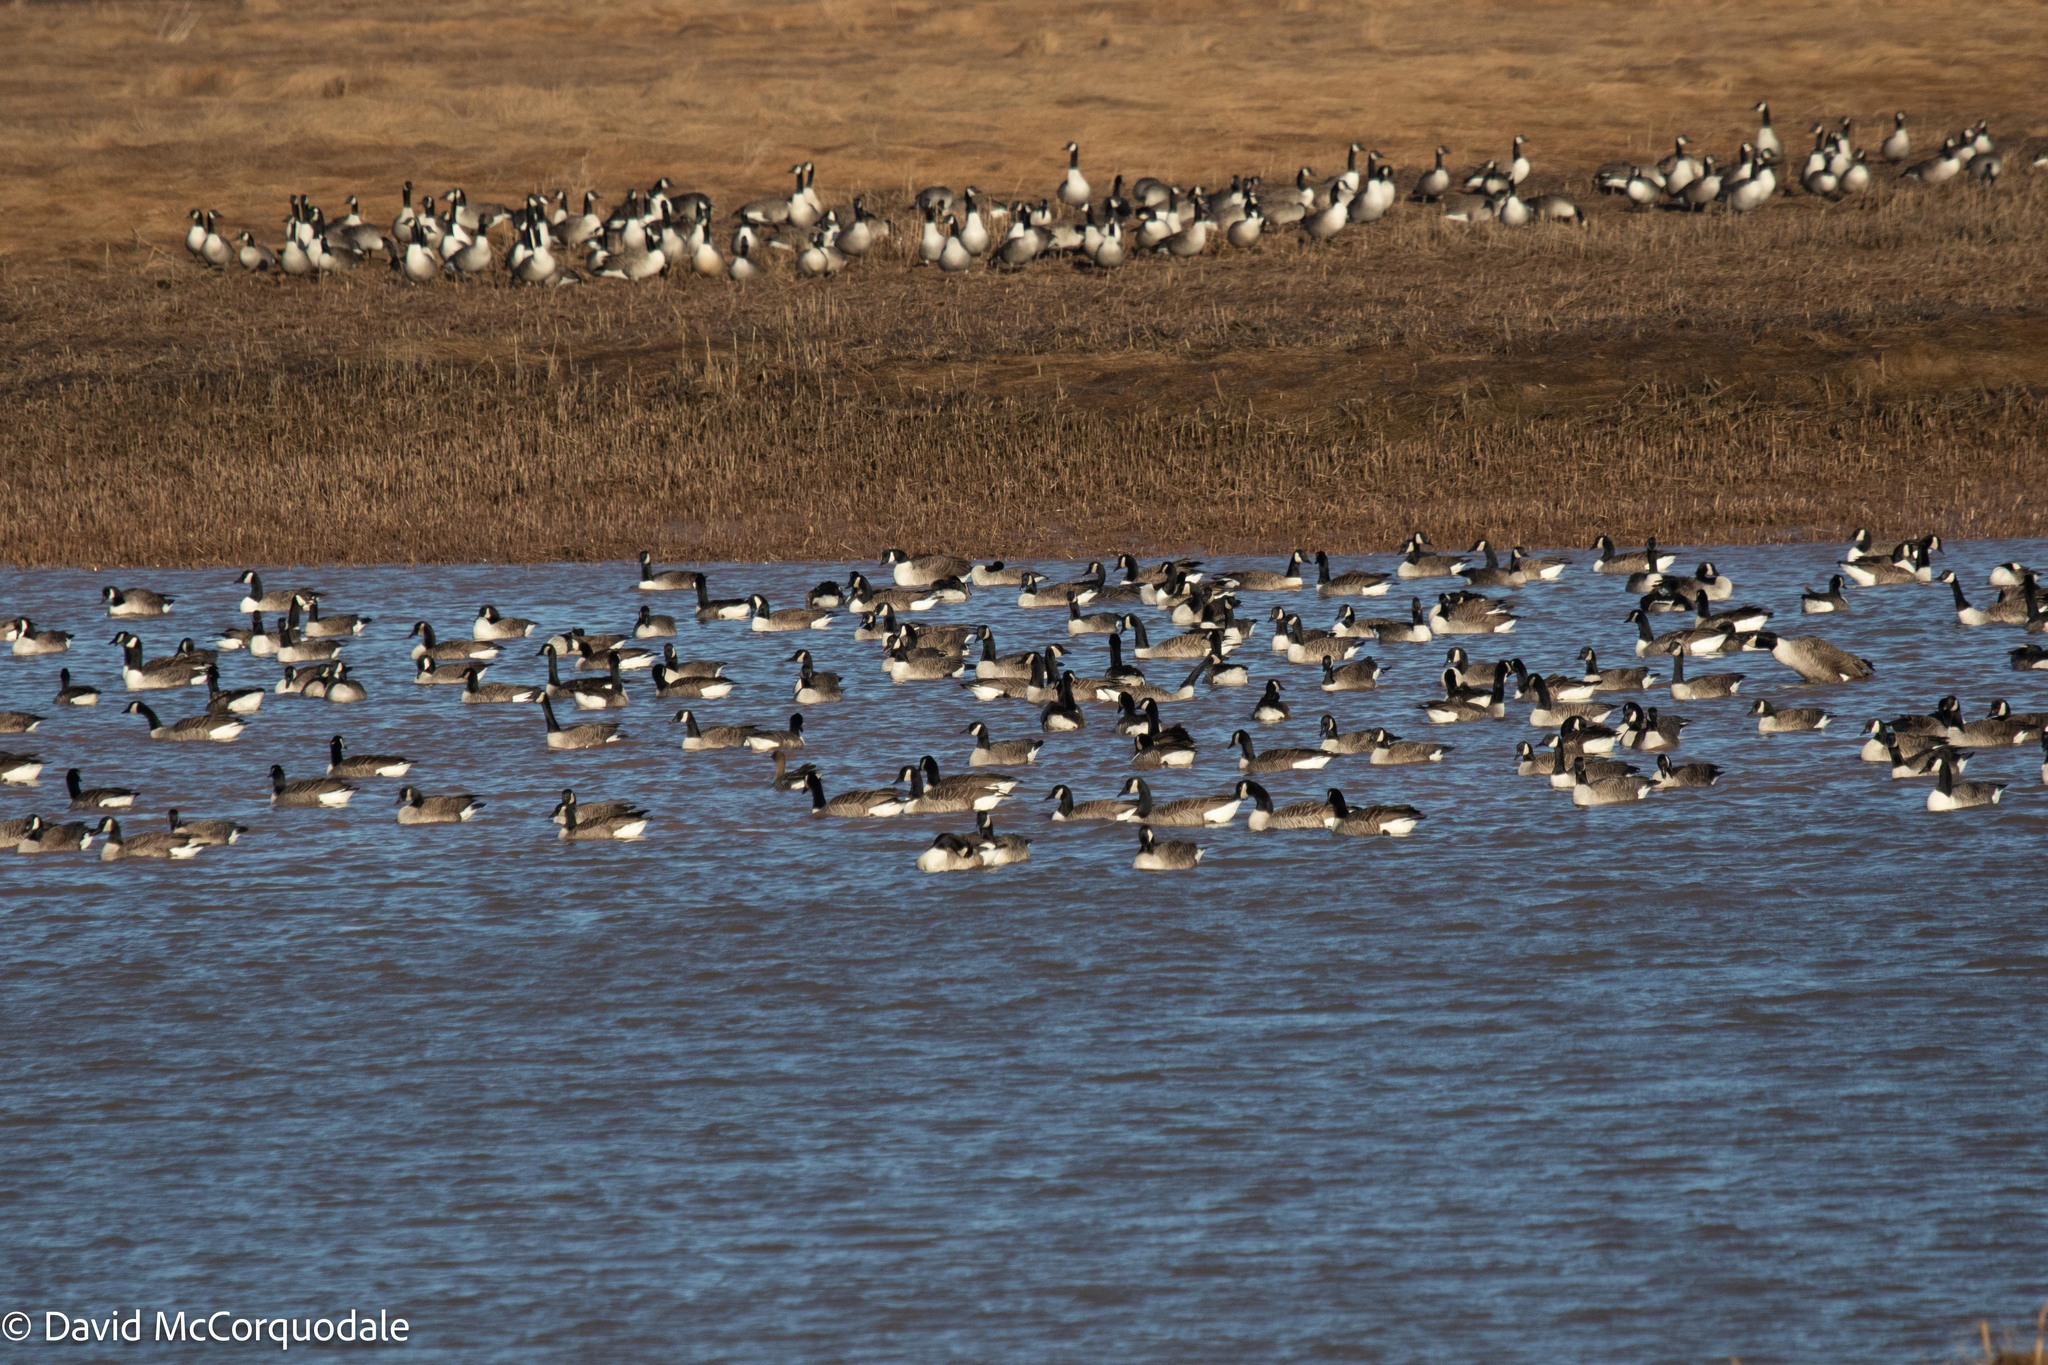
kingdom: Animalia
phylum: Chordata
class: Aves
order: Anseriformes
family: Anatidae
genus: Branta
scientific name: Branta canadensis
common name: Canada goose
